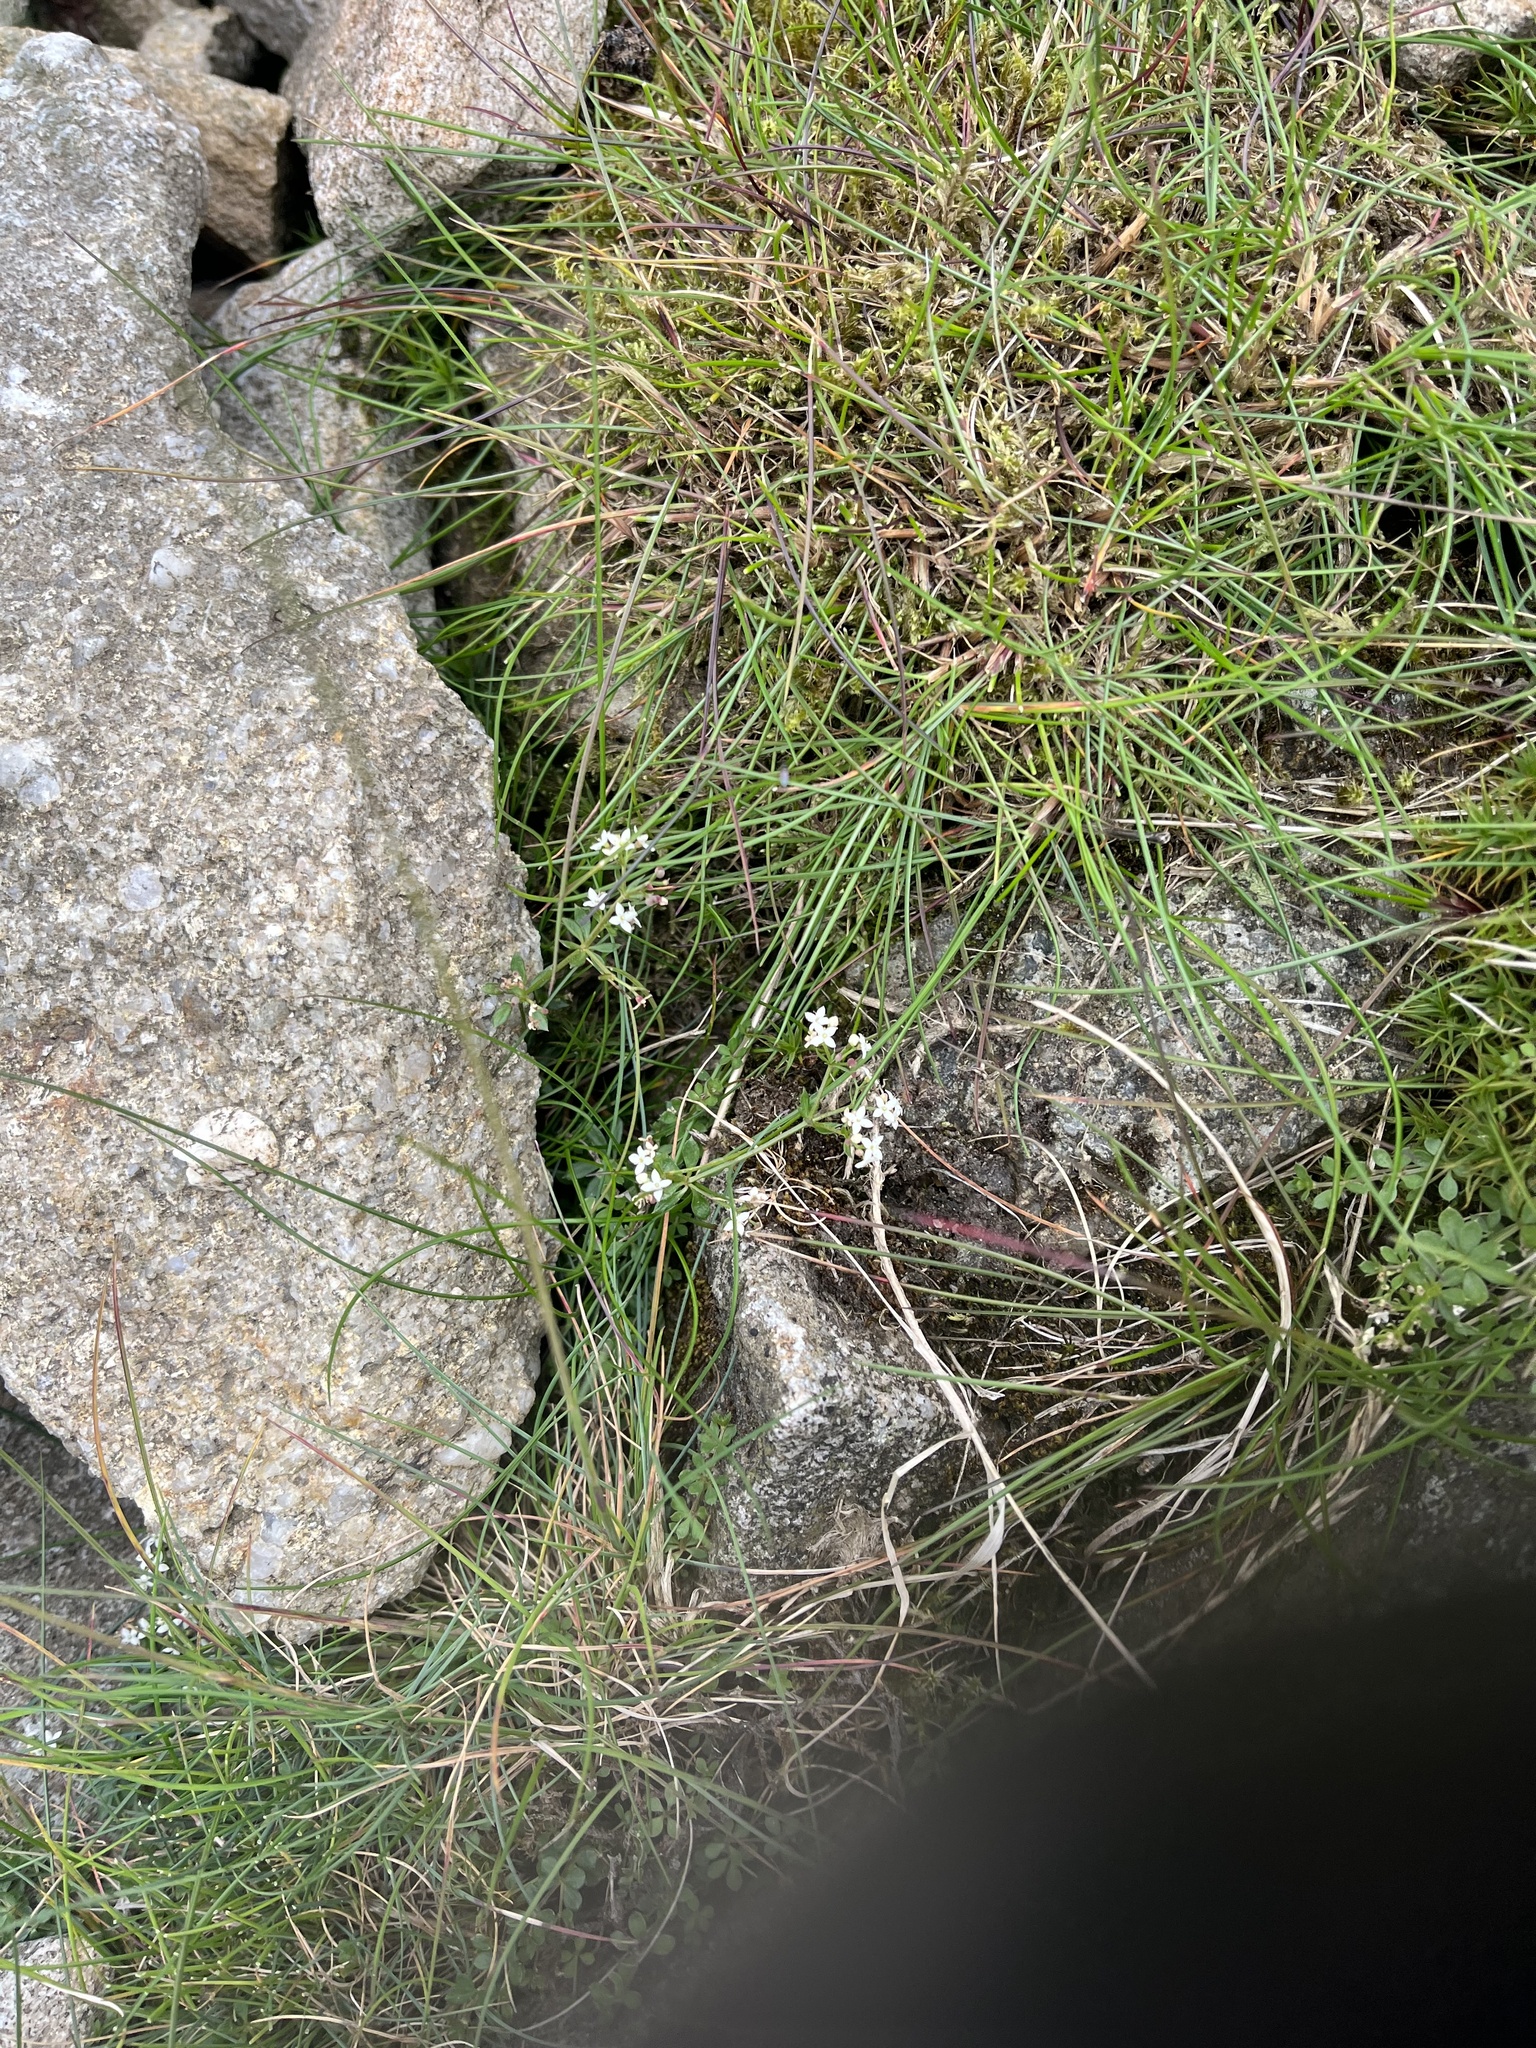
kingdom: Plantae
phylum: Tracheophyta
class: Magnoliopsida
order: Gentianales
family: Rubiaceae
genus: Galium
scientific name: Galium saxatile
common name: Heath bedstraw
